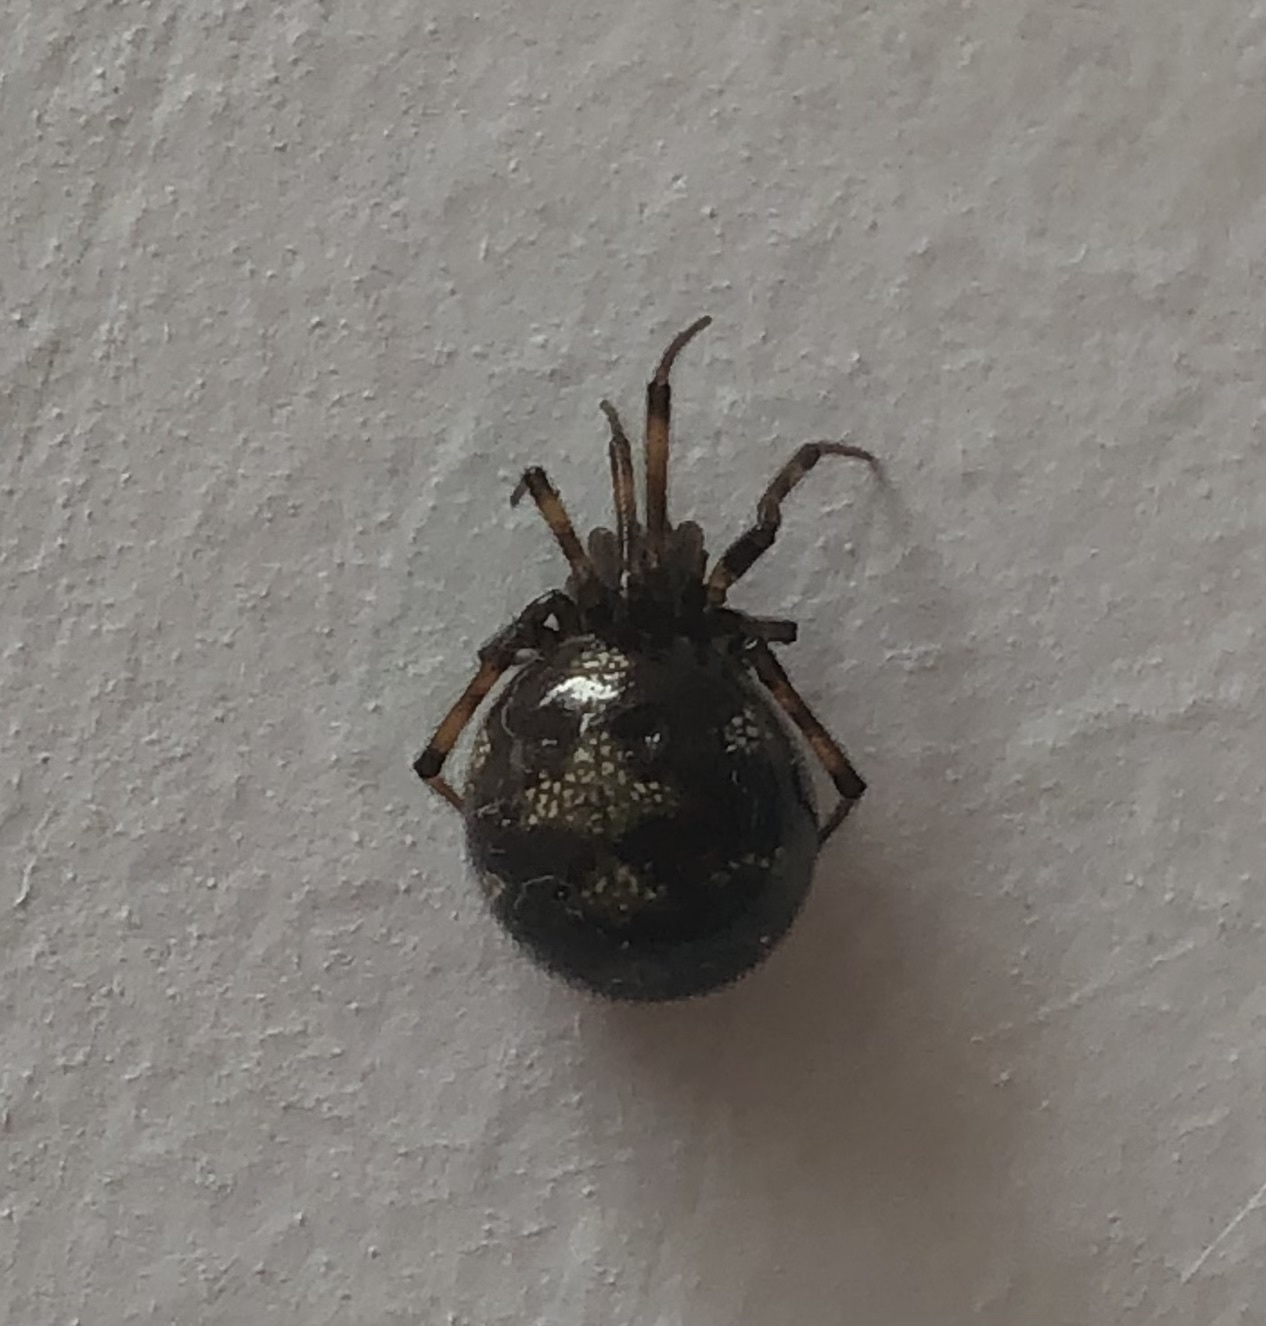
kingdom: Animalia
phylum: Arthropoda
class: Arachnida
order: Araneae
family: Theridiidae
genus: Steatoda
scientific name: Steatoda triangulosa
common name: Triangulate bud spider
